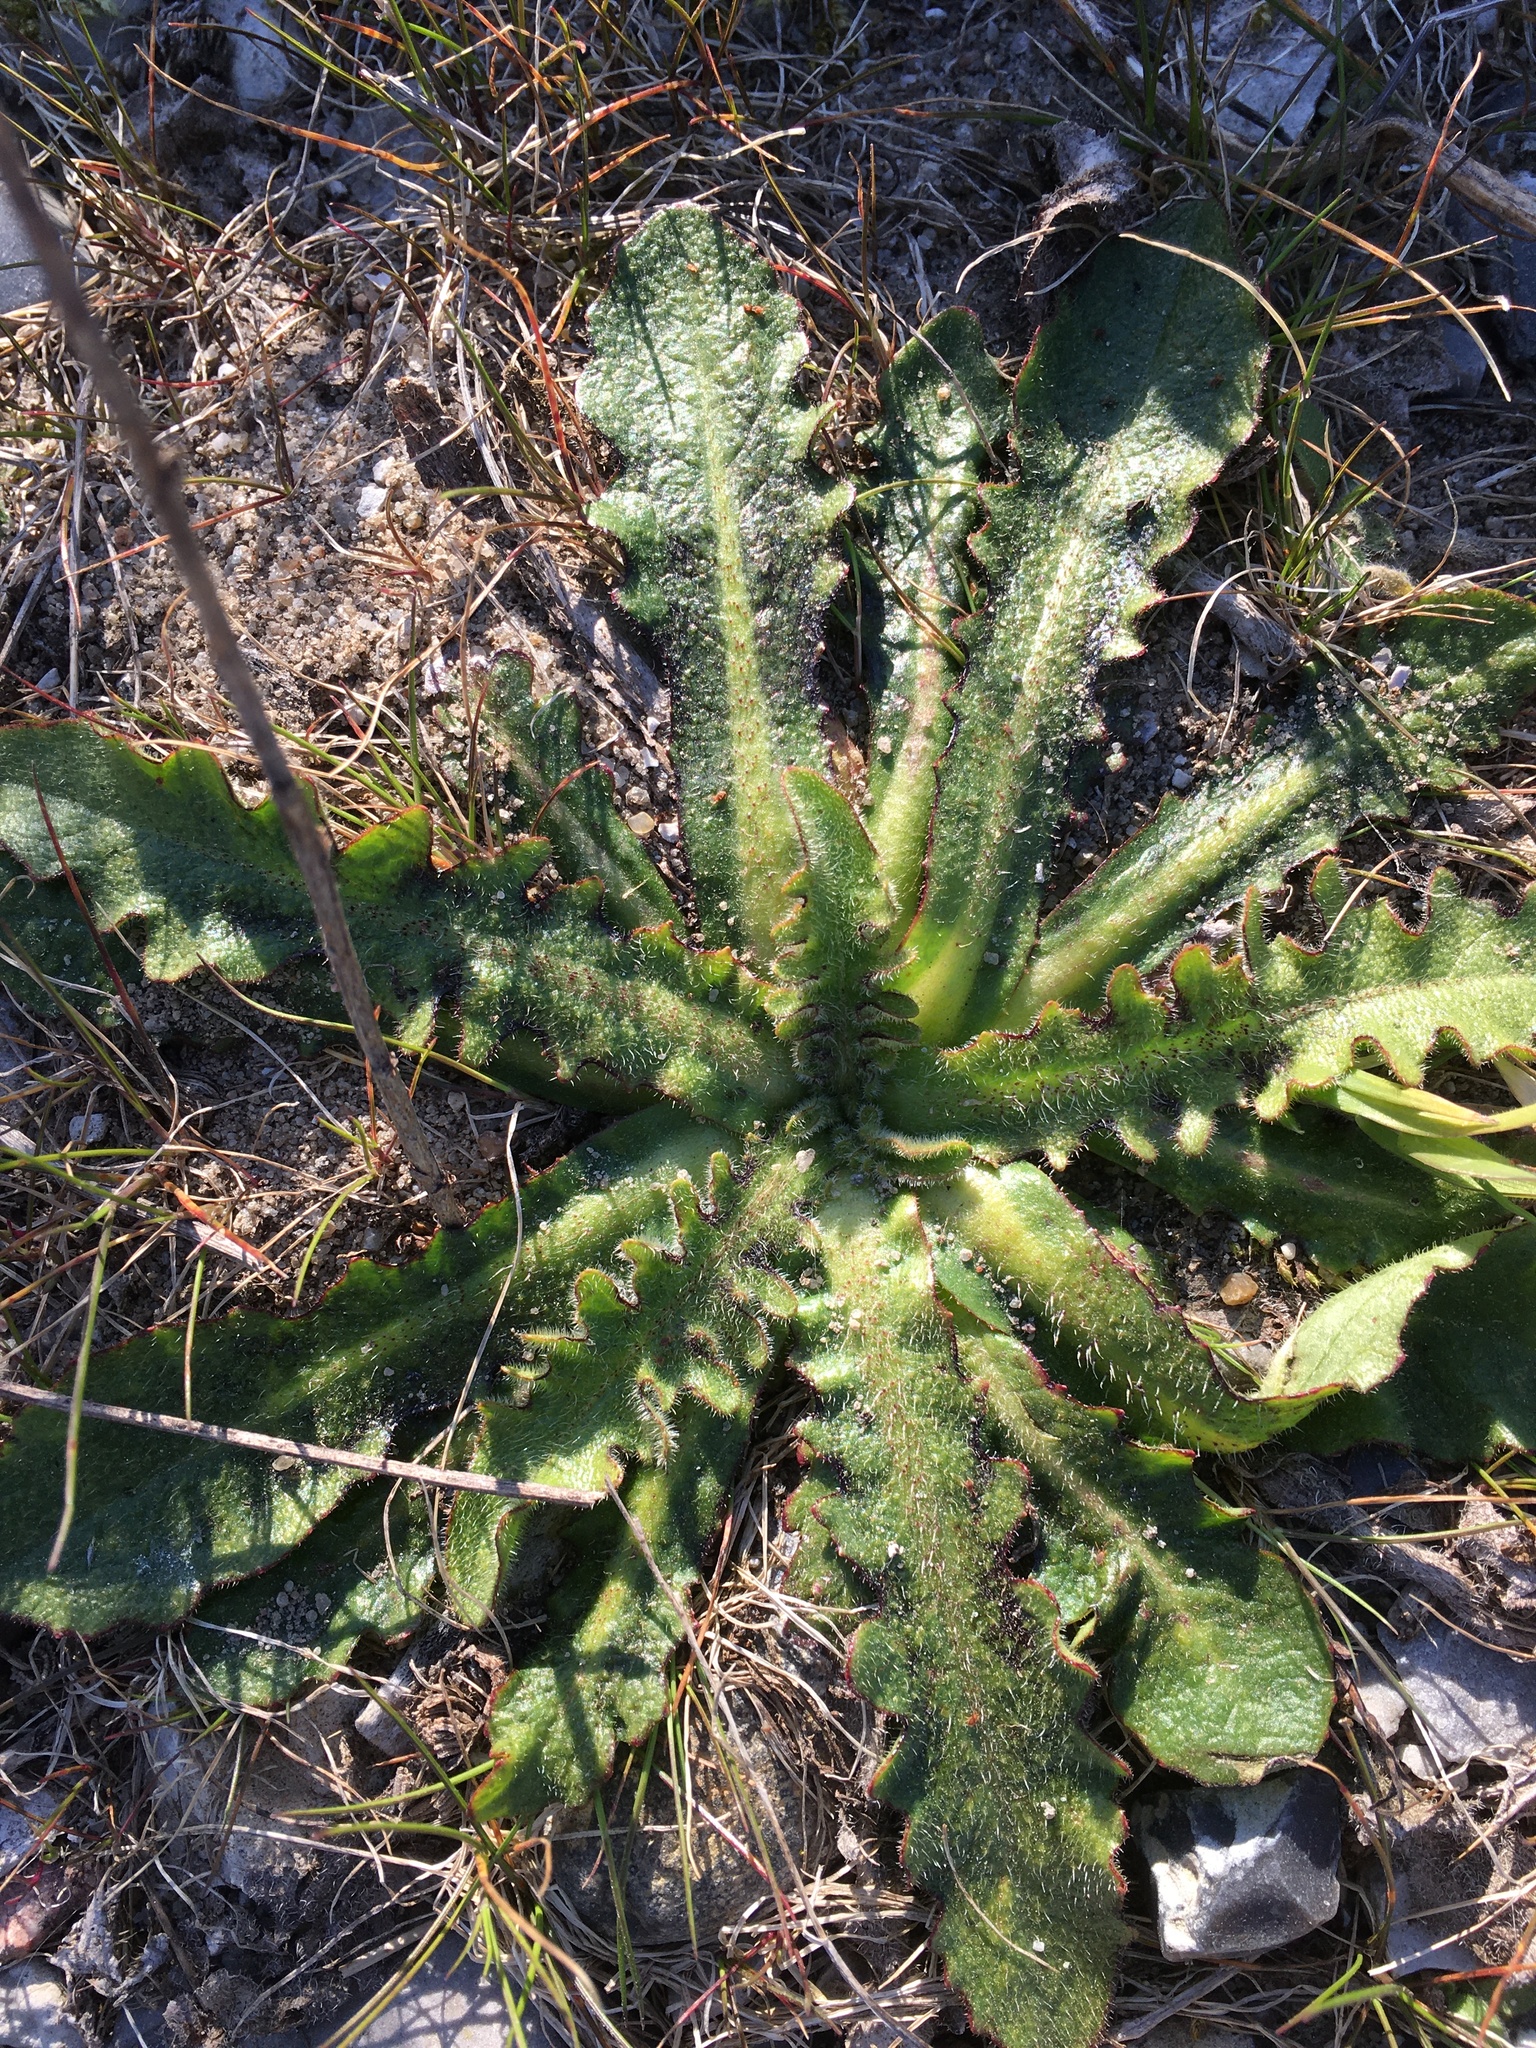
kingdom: Plantae
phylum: Tracheophyta
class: Magnoliopsida
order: Asterales
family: Asteraceae
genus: Hypochaeris
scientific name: Hypochaeris radicata
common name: Flatweed
